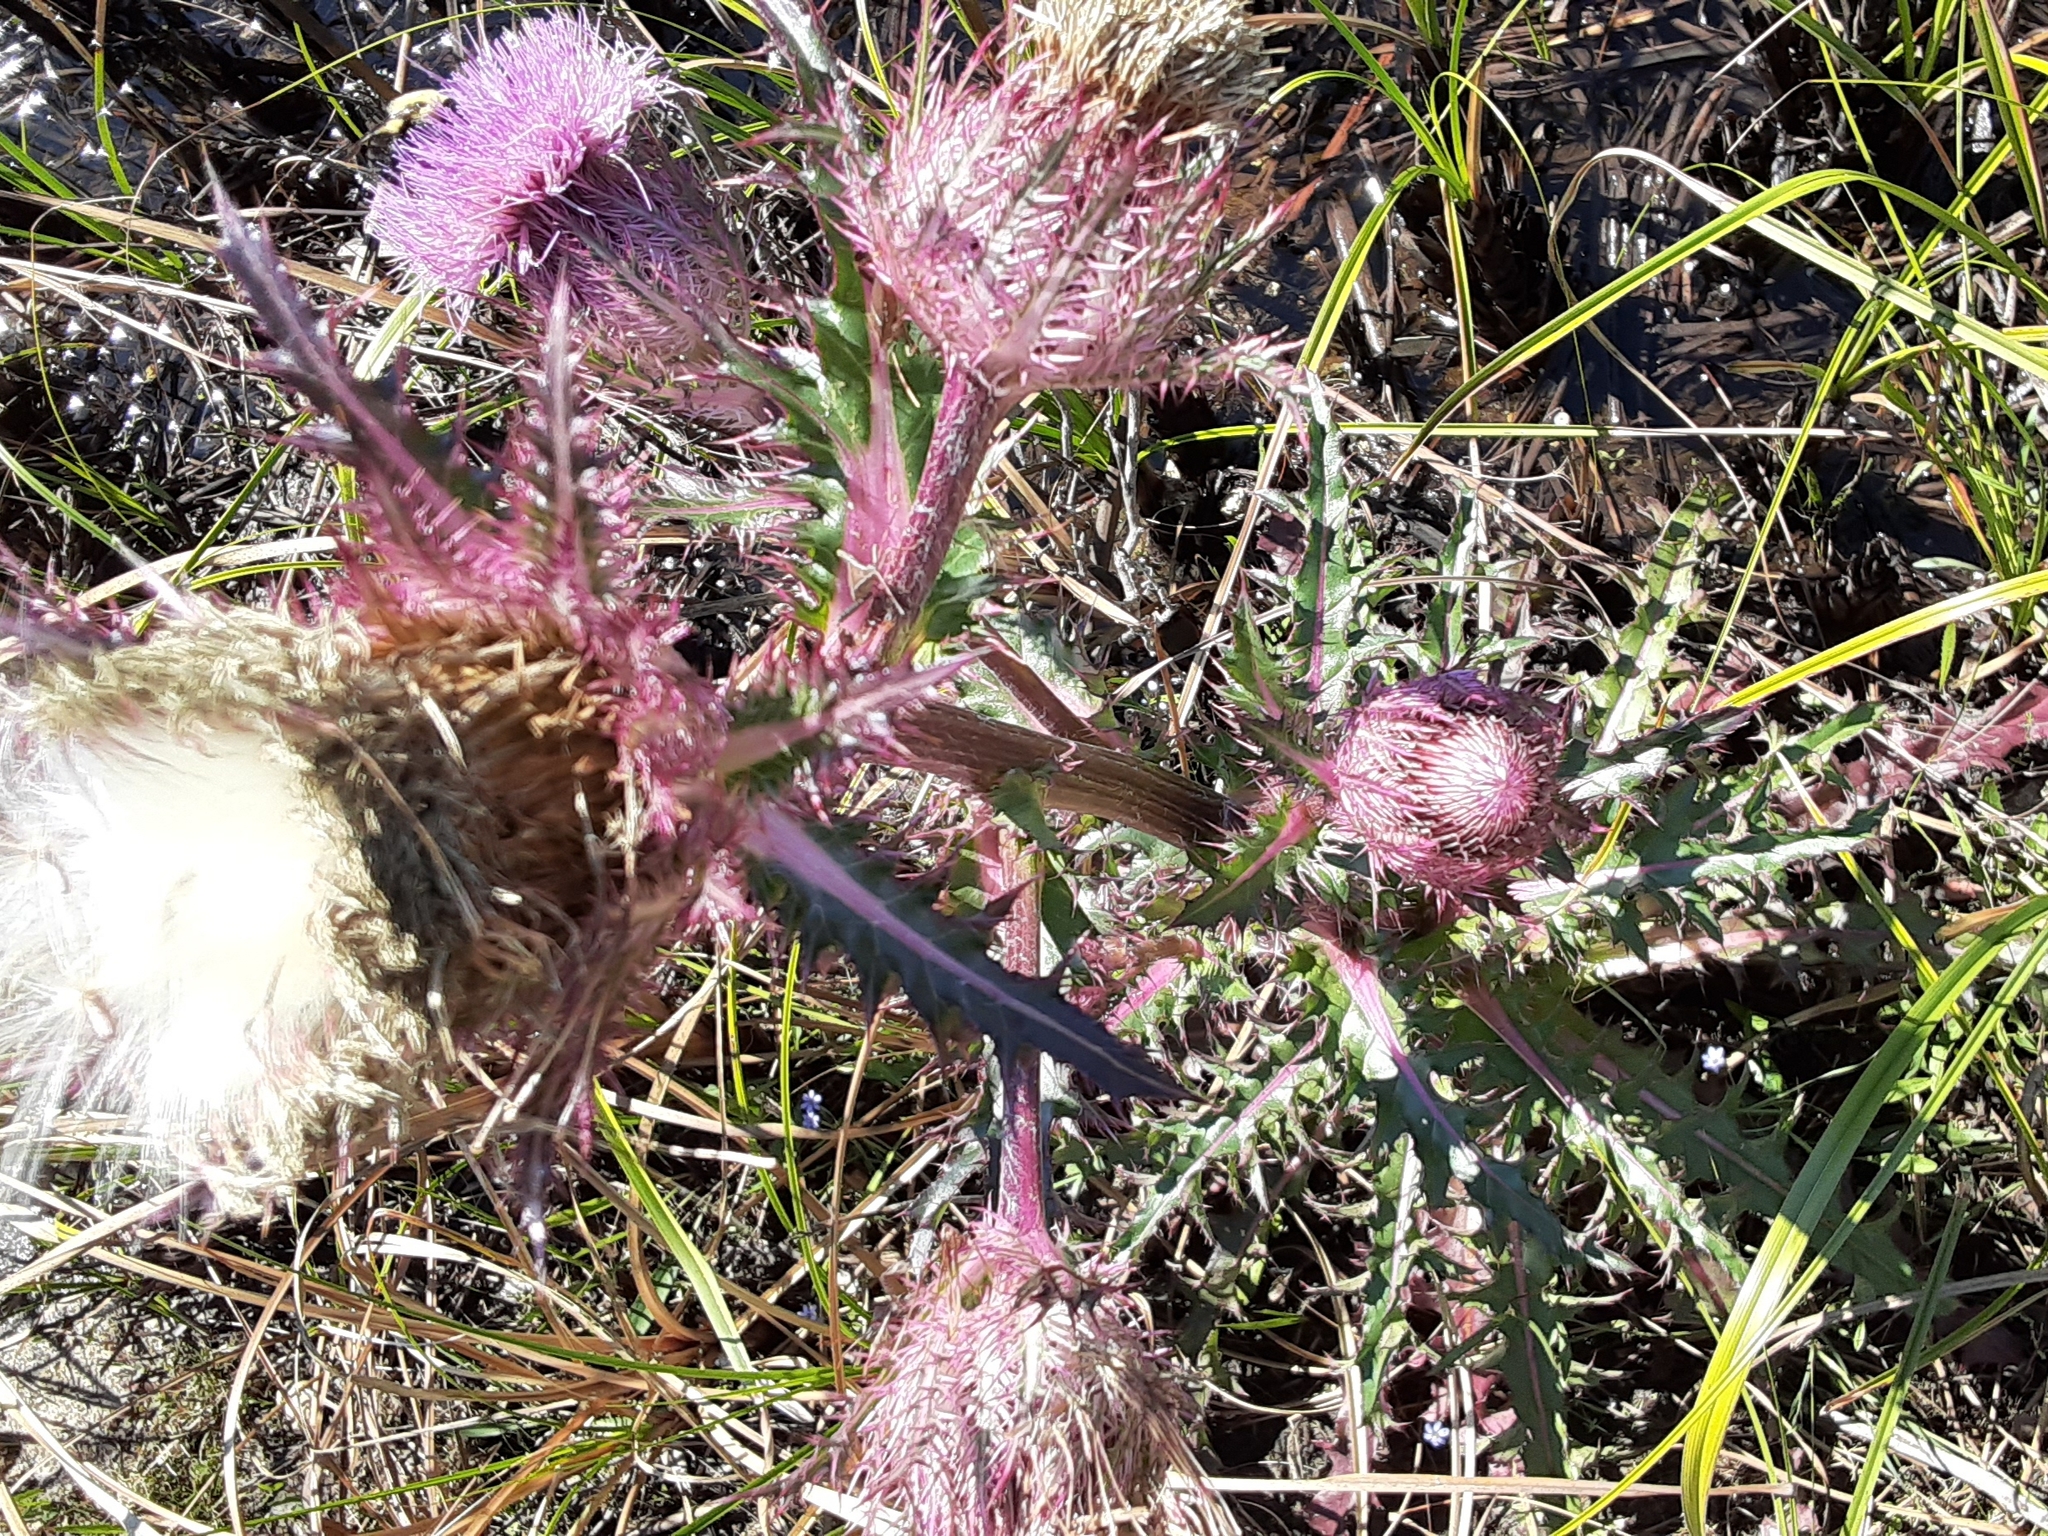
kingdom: Plantae
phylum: Tracheophyta
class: Magnoliopsida
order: Asterales
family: Asteraceae
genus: Cirsium
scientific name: Cirsium horridulum
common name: Bristly thistle
